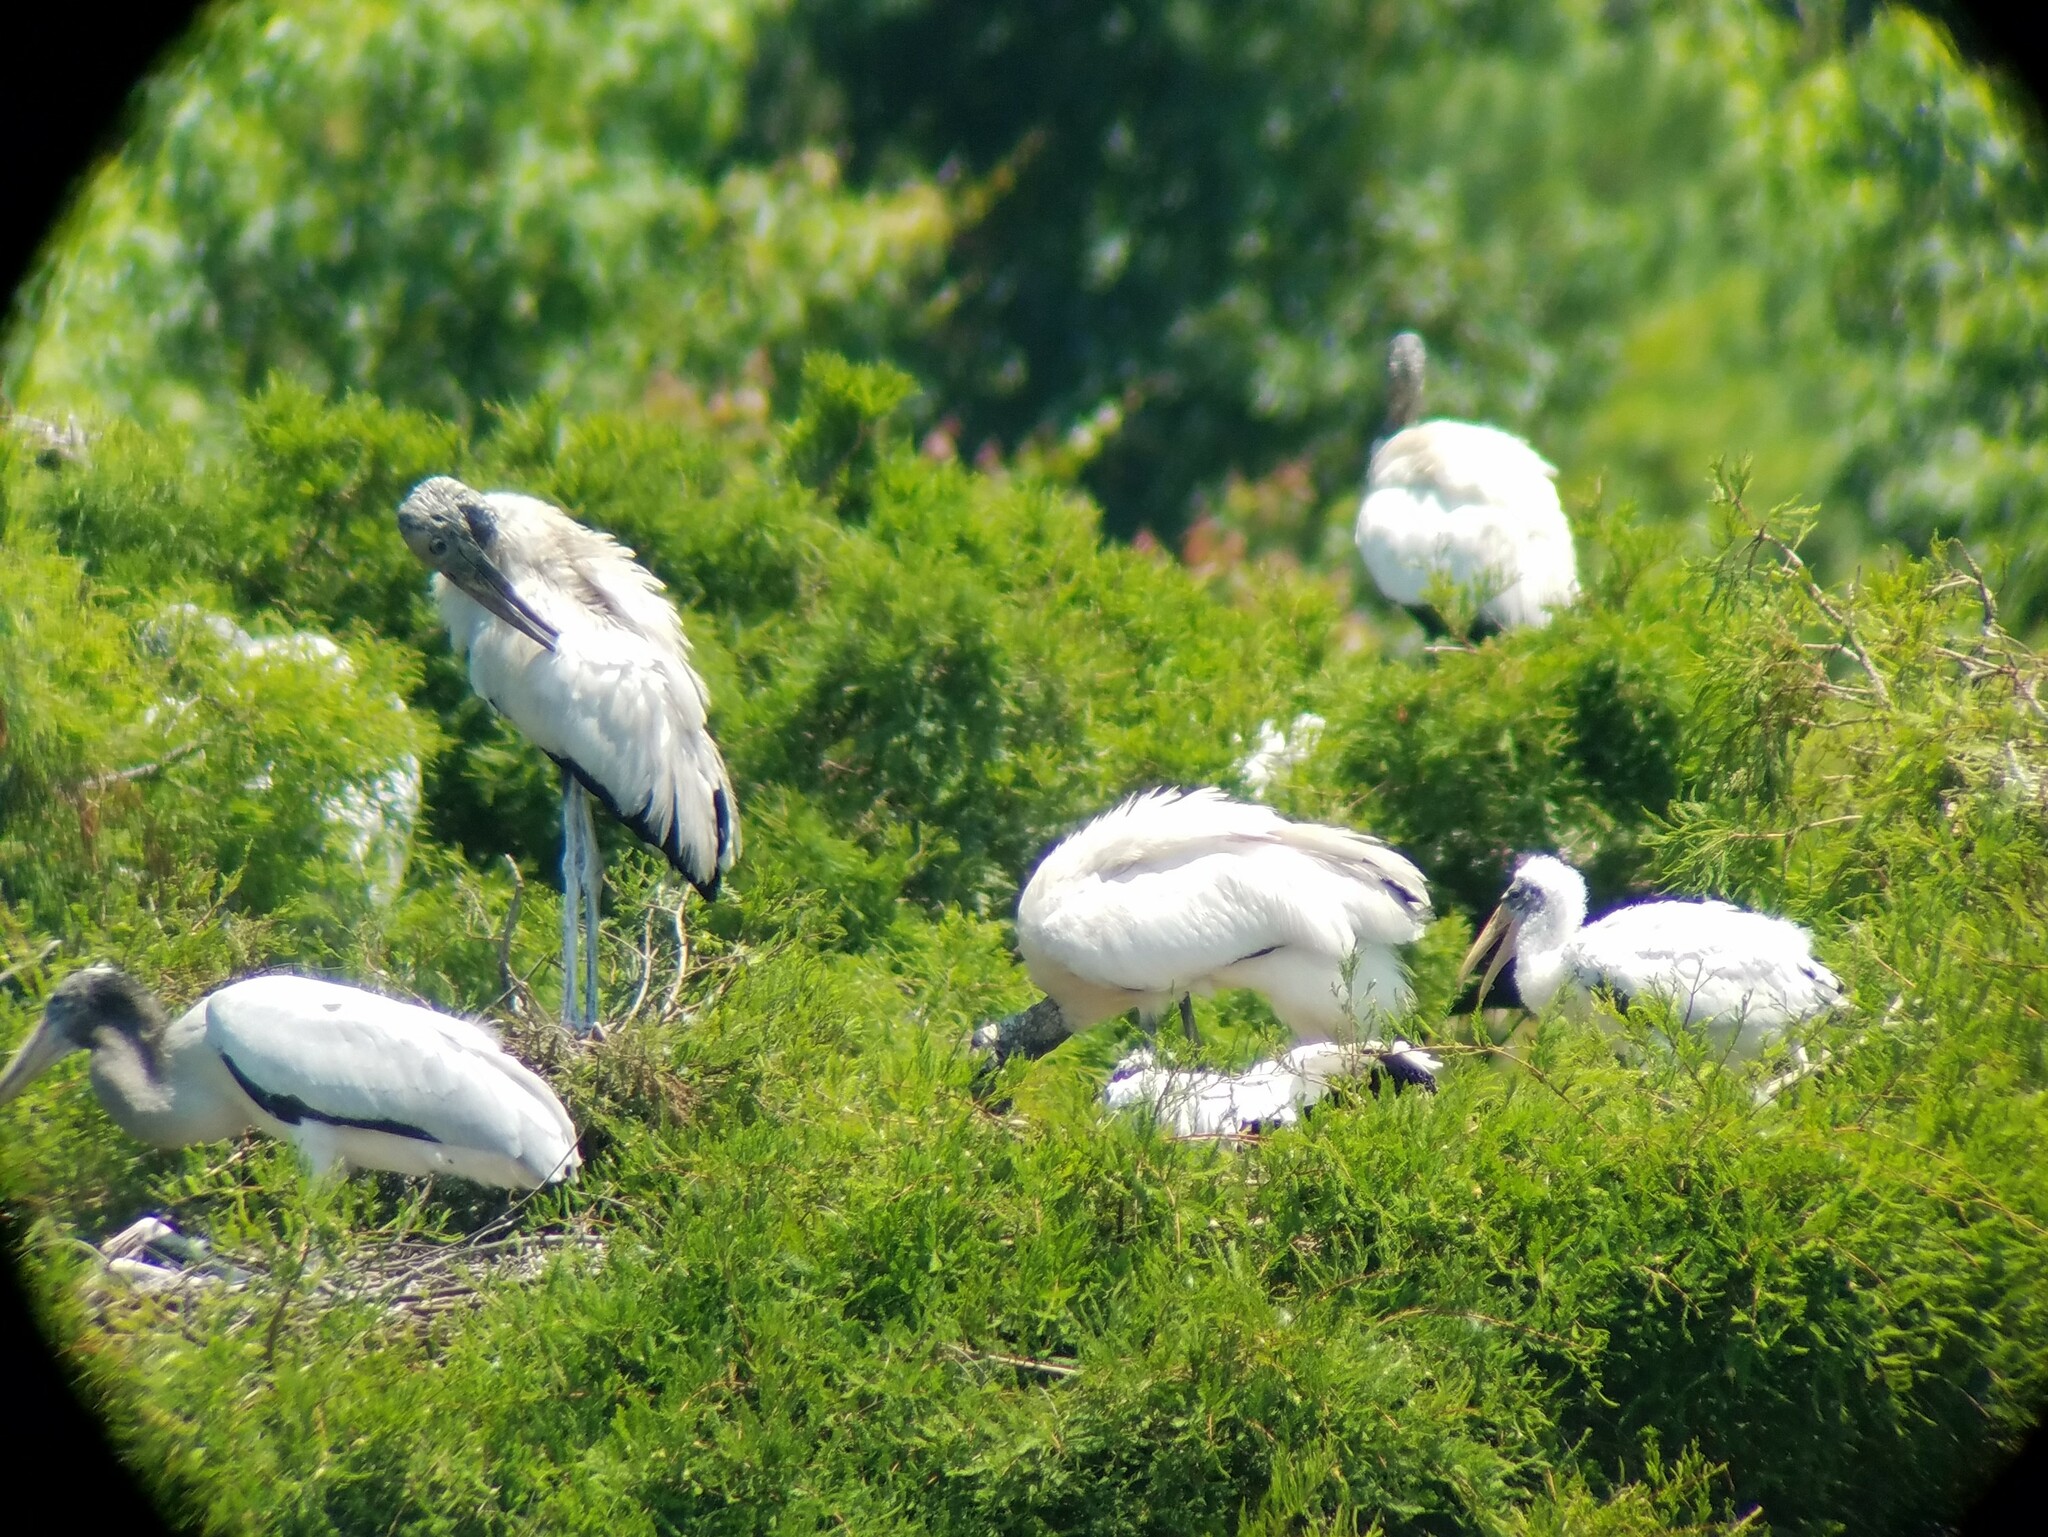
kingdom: Animalia
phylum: Chordata
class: Aves
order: Ciconiiformes
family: Ciconiidae
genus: Mycteria
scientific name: Mycteria americana
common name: Wood stork
